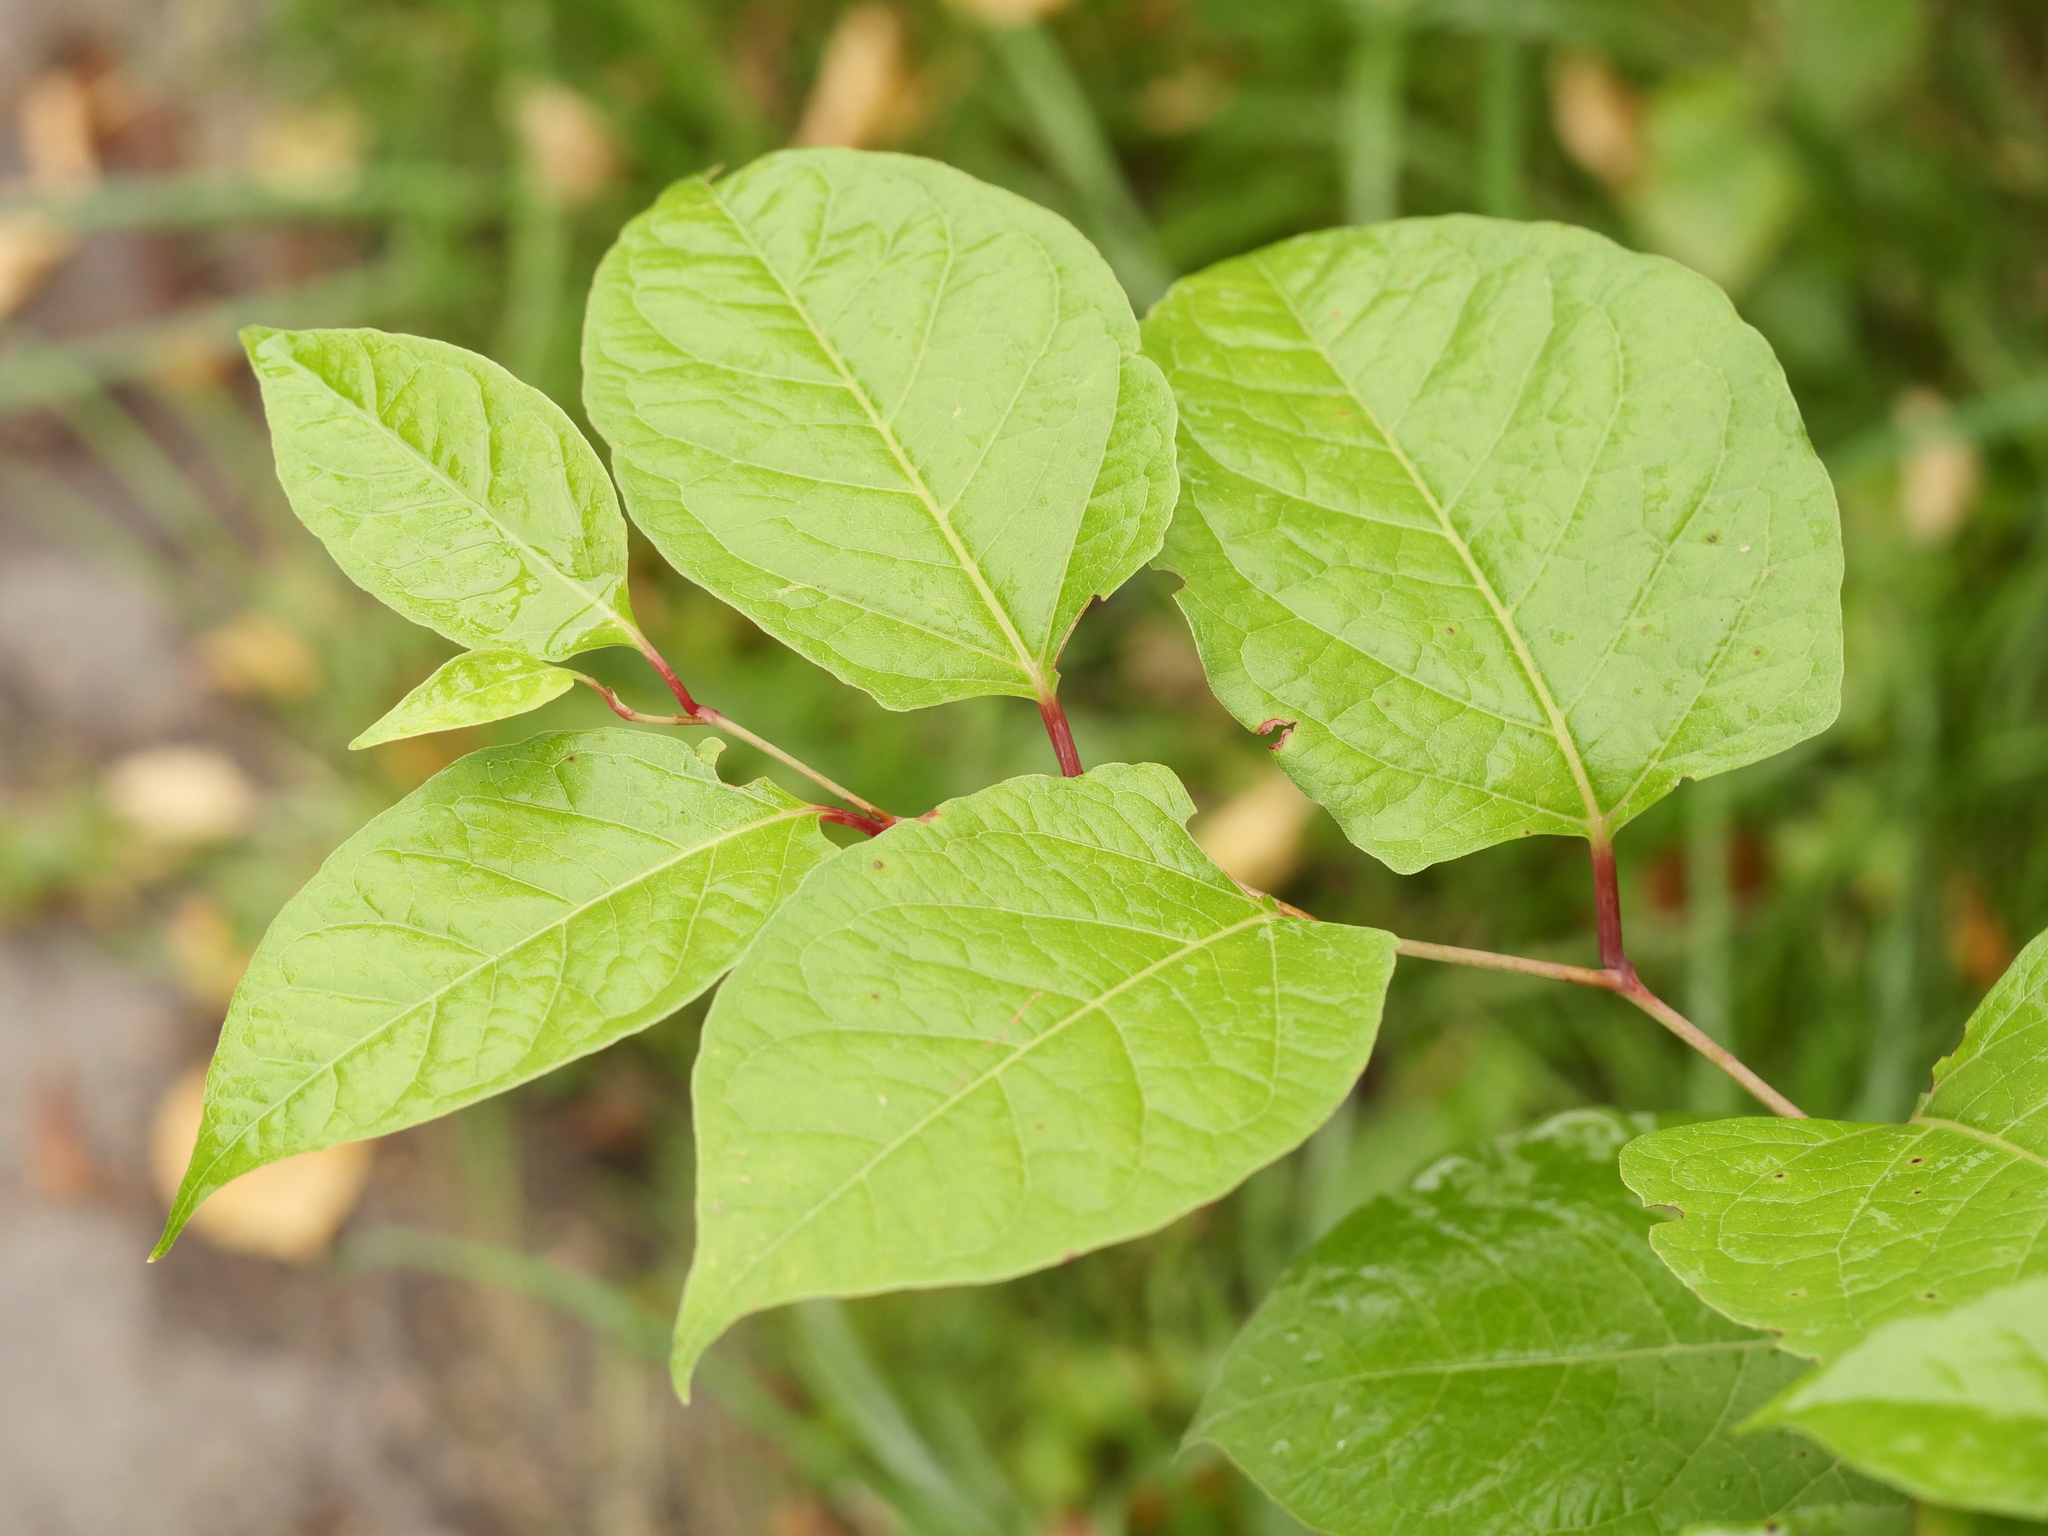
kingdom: Plantae
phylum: Tracheophyta
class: Magnoliopsida
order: Caryophyllales
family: Polygonaceae
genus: Reynoutria
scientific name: Reynoutria japonica
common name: Japanese knotweed
